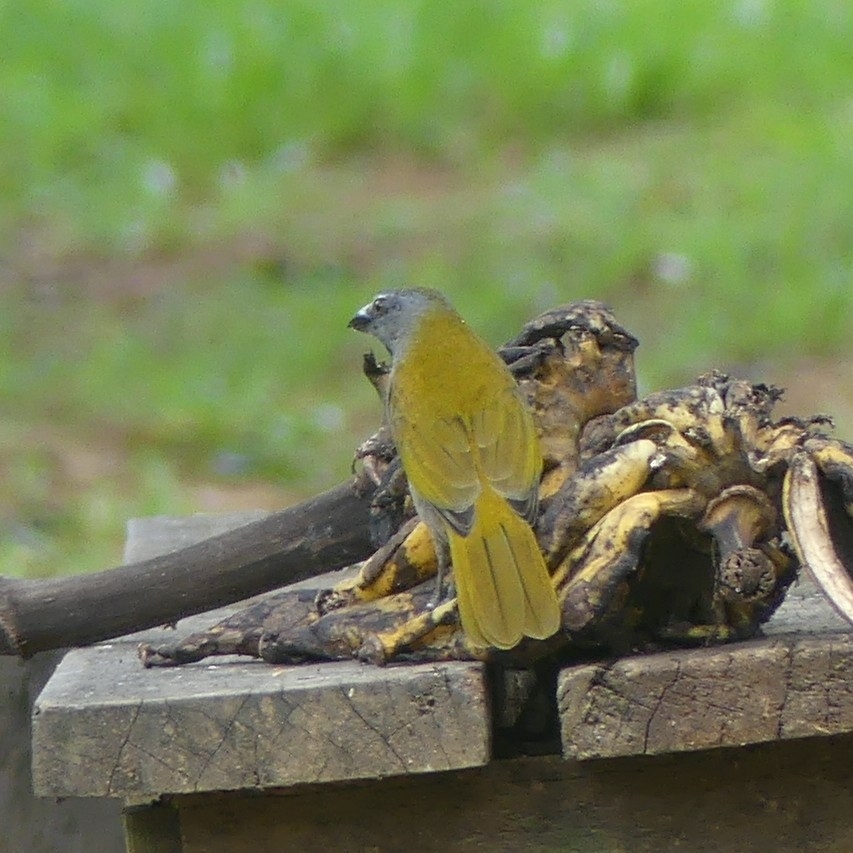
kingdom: Animalia
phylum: Chordata
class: Aves
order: Passeriformes
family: Thraupidae
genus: Saltator
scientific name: Saltator maximus
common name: Buff-throated saltator
